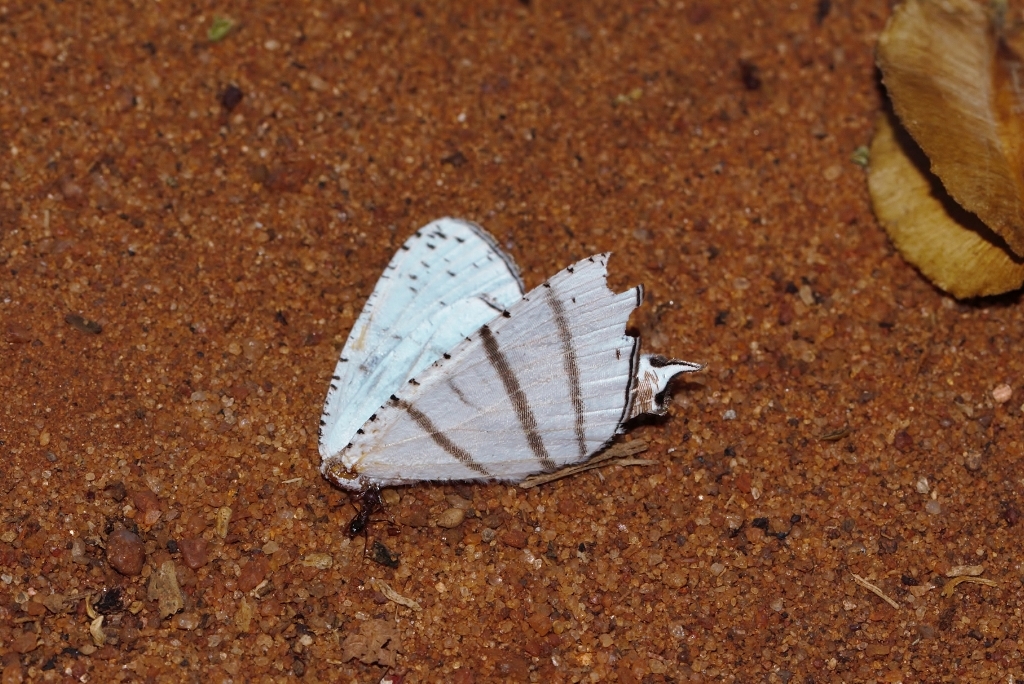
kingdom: Animalia
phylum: Arthropoda
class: Insecta
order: Lepidoptera
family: Uraniidae
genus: Urapteroides
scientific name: Urapteroides recurvata
